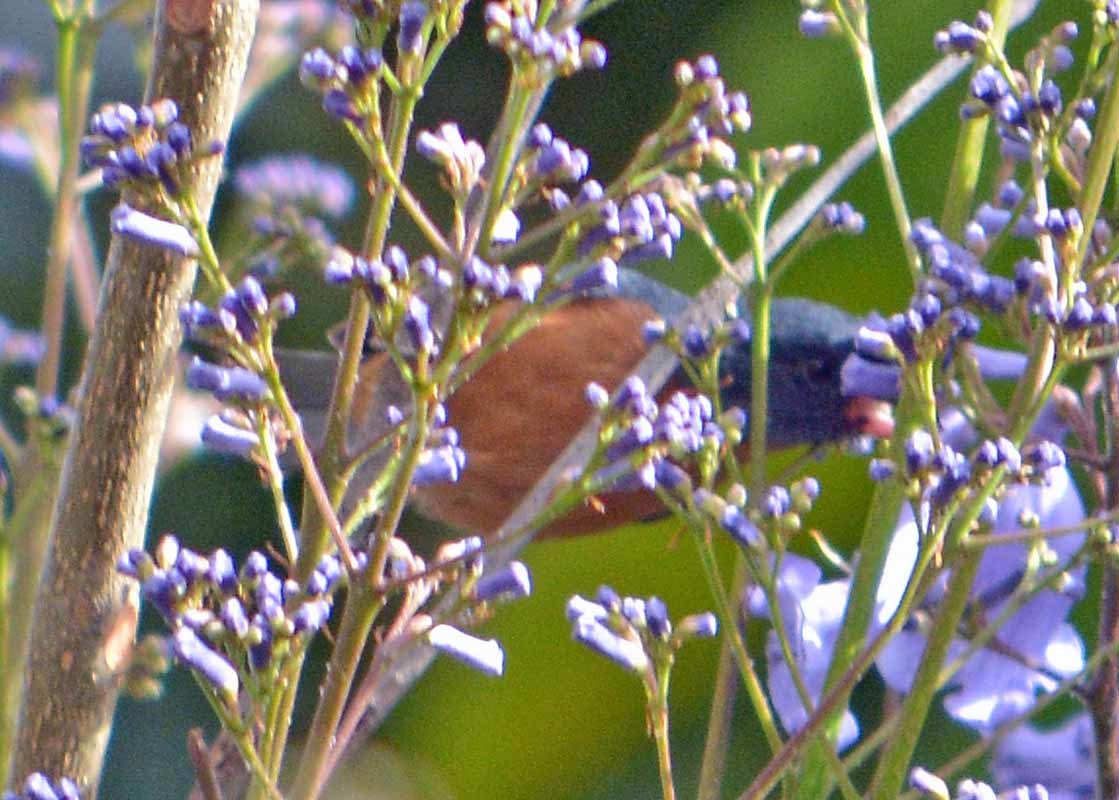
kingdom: Animalia
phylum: Chordata
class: Aves
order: Passeriformes
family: Thraupidae
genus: Diglossa
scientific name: Diglossa baritula
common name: Cinnamon-bellied flowerpiercer
